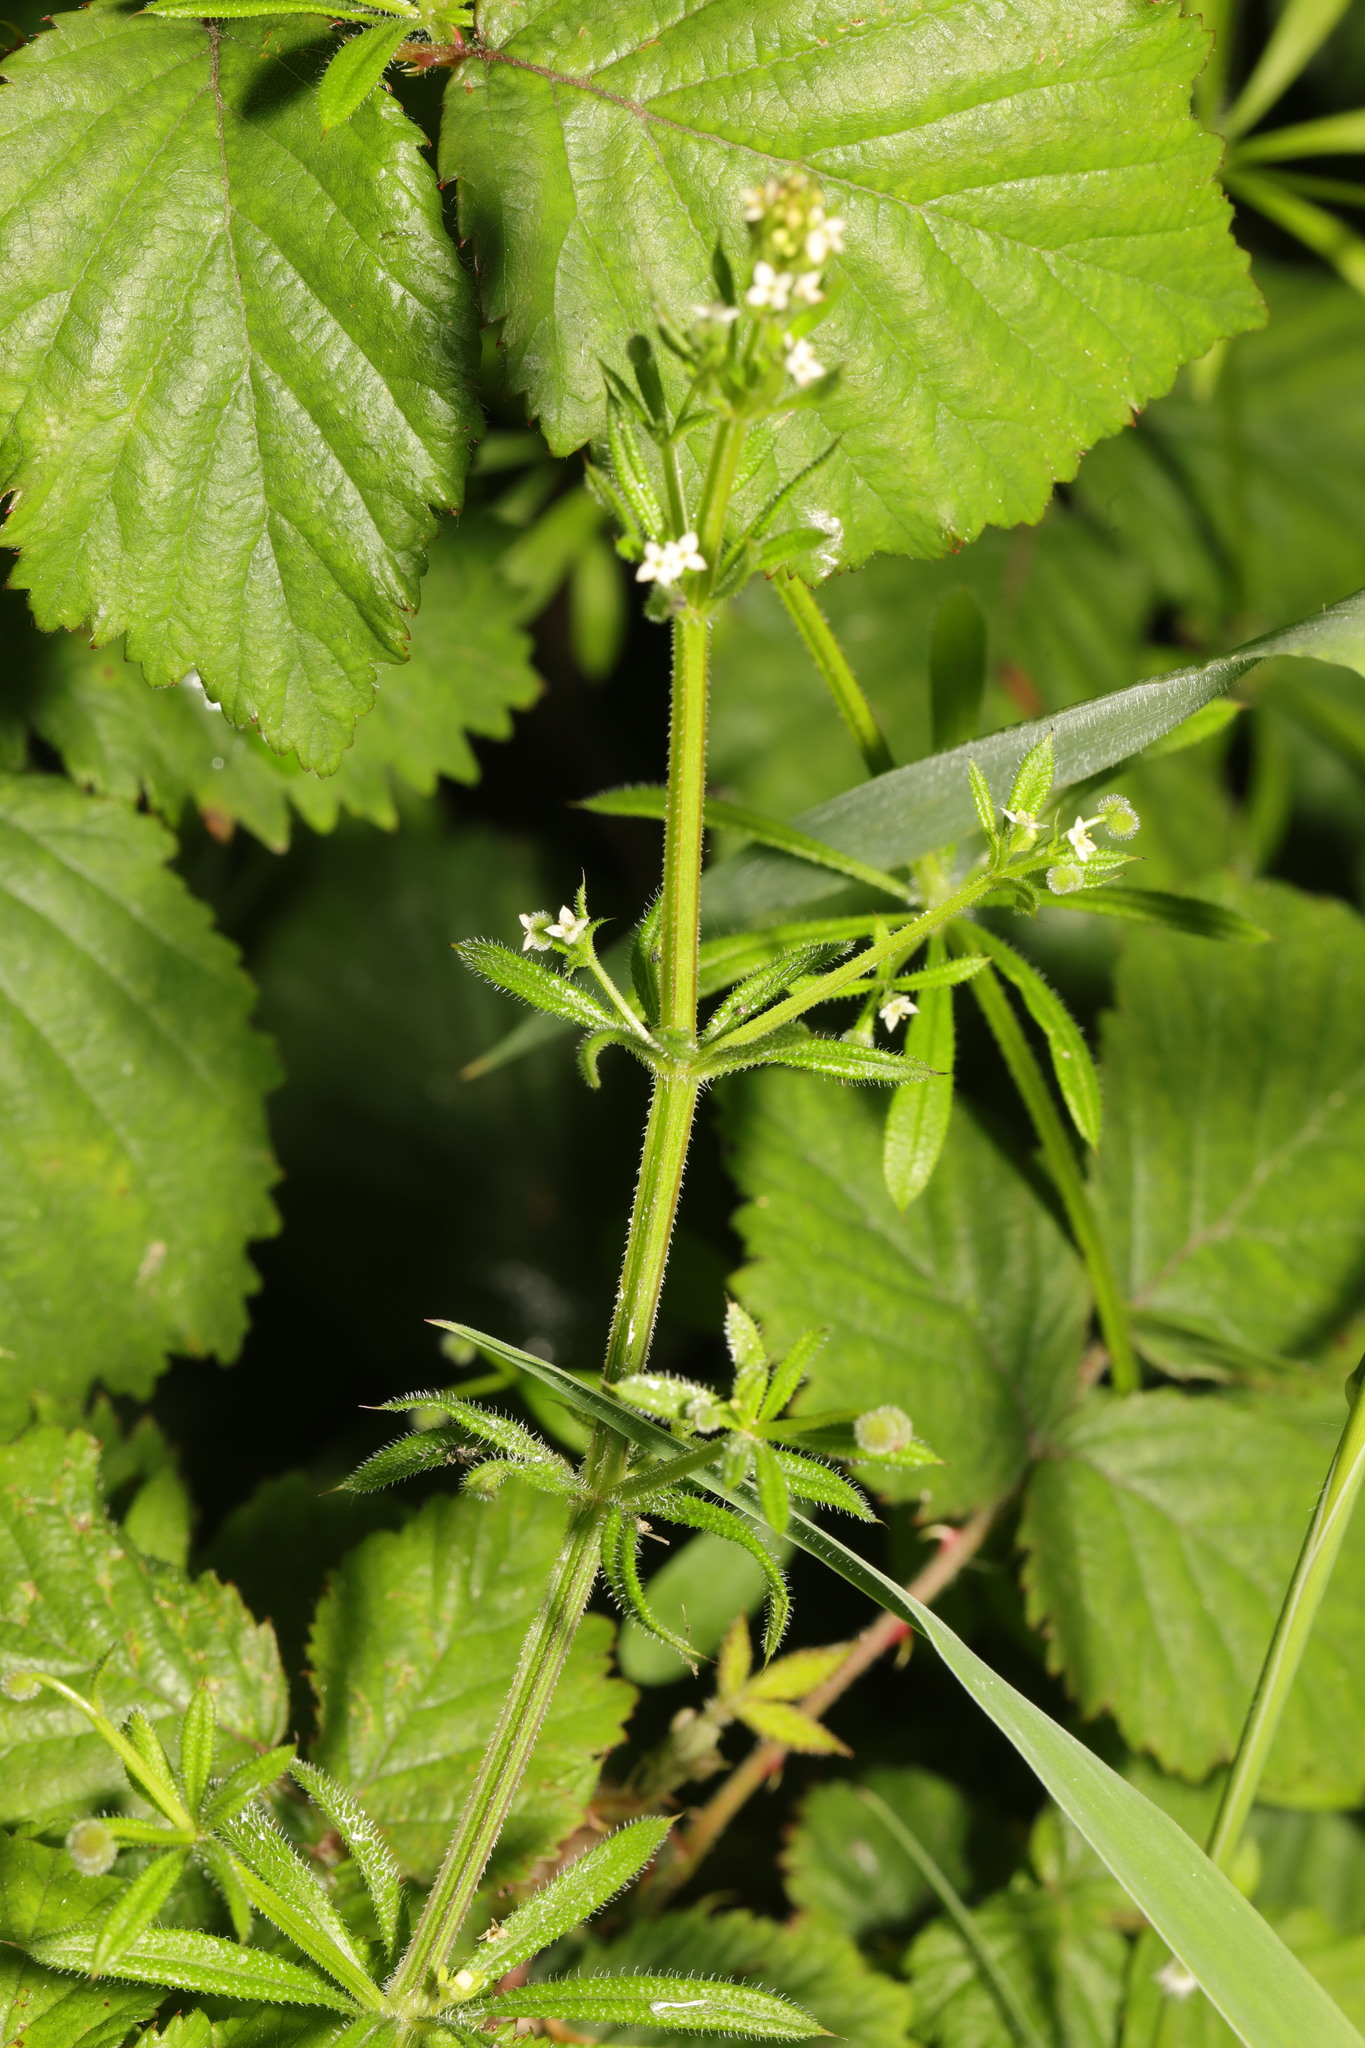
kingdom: Plantae
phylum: Tracheophyta
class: Magnoliopsida
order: Gentianales
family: Rubiaceae
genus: Galium
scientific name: Galium aparine
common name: Cleavers
